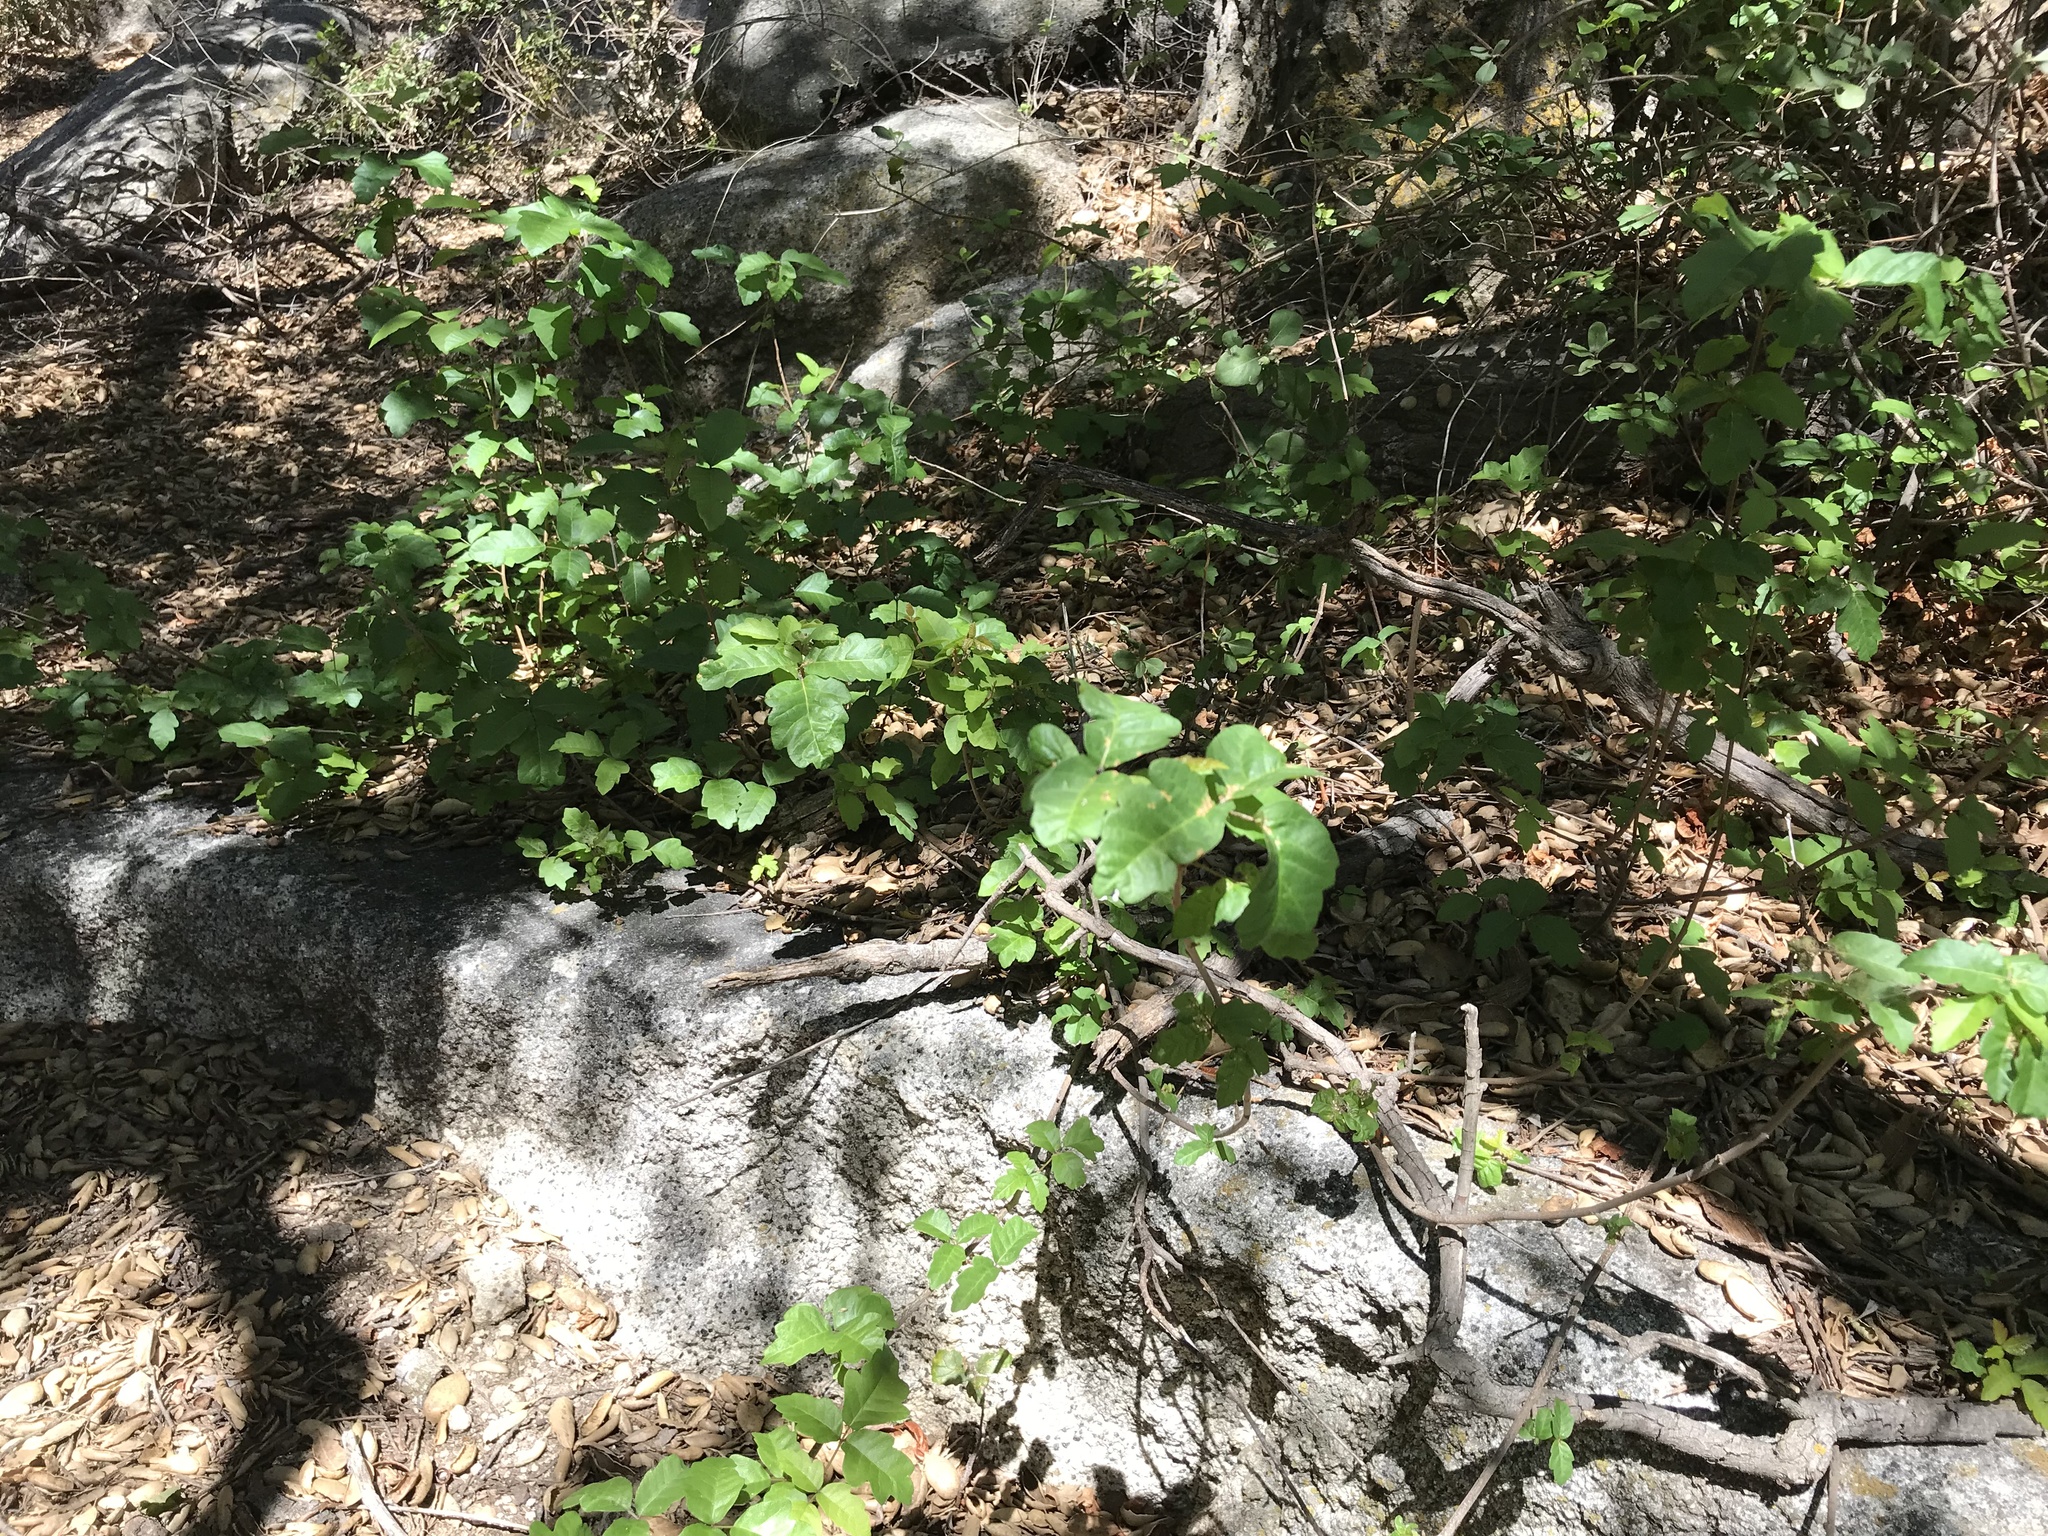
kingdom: Plantae
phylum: Tracheophyta
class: Magnoliopsida
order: Sapindales
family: Anacardiaceae
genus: Toxicodendron
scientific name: Toxicodendron diversilobum
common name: Pacific poison-oak
